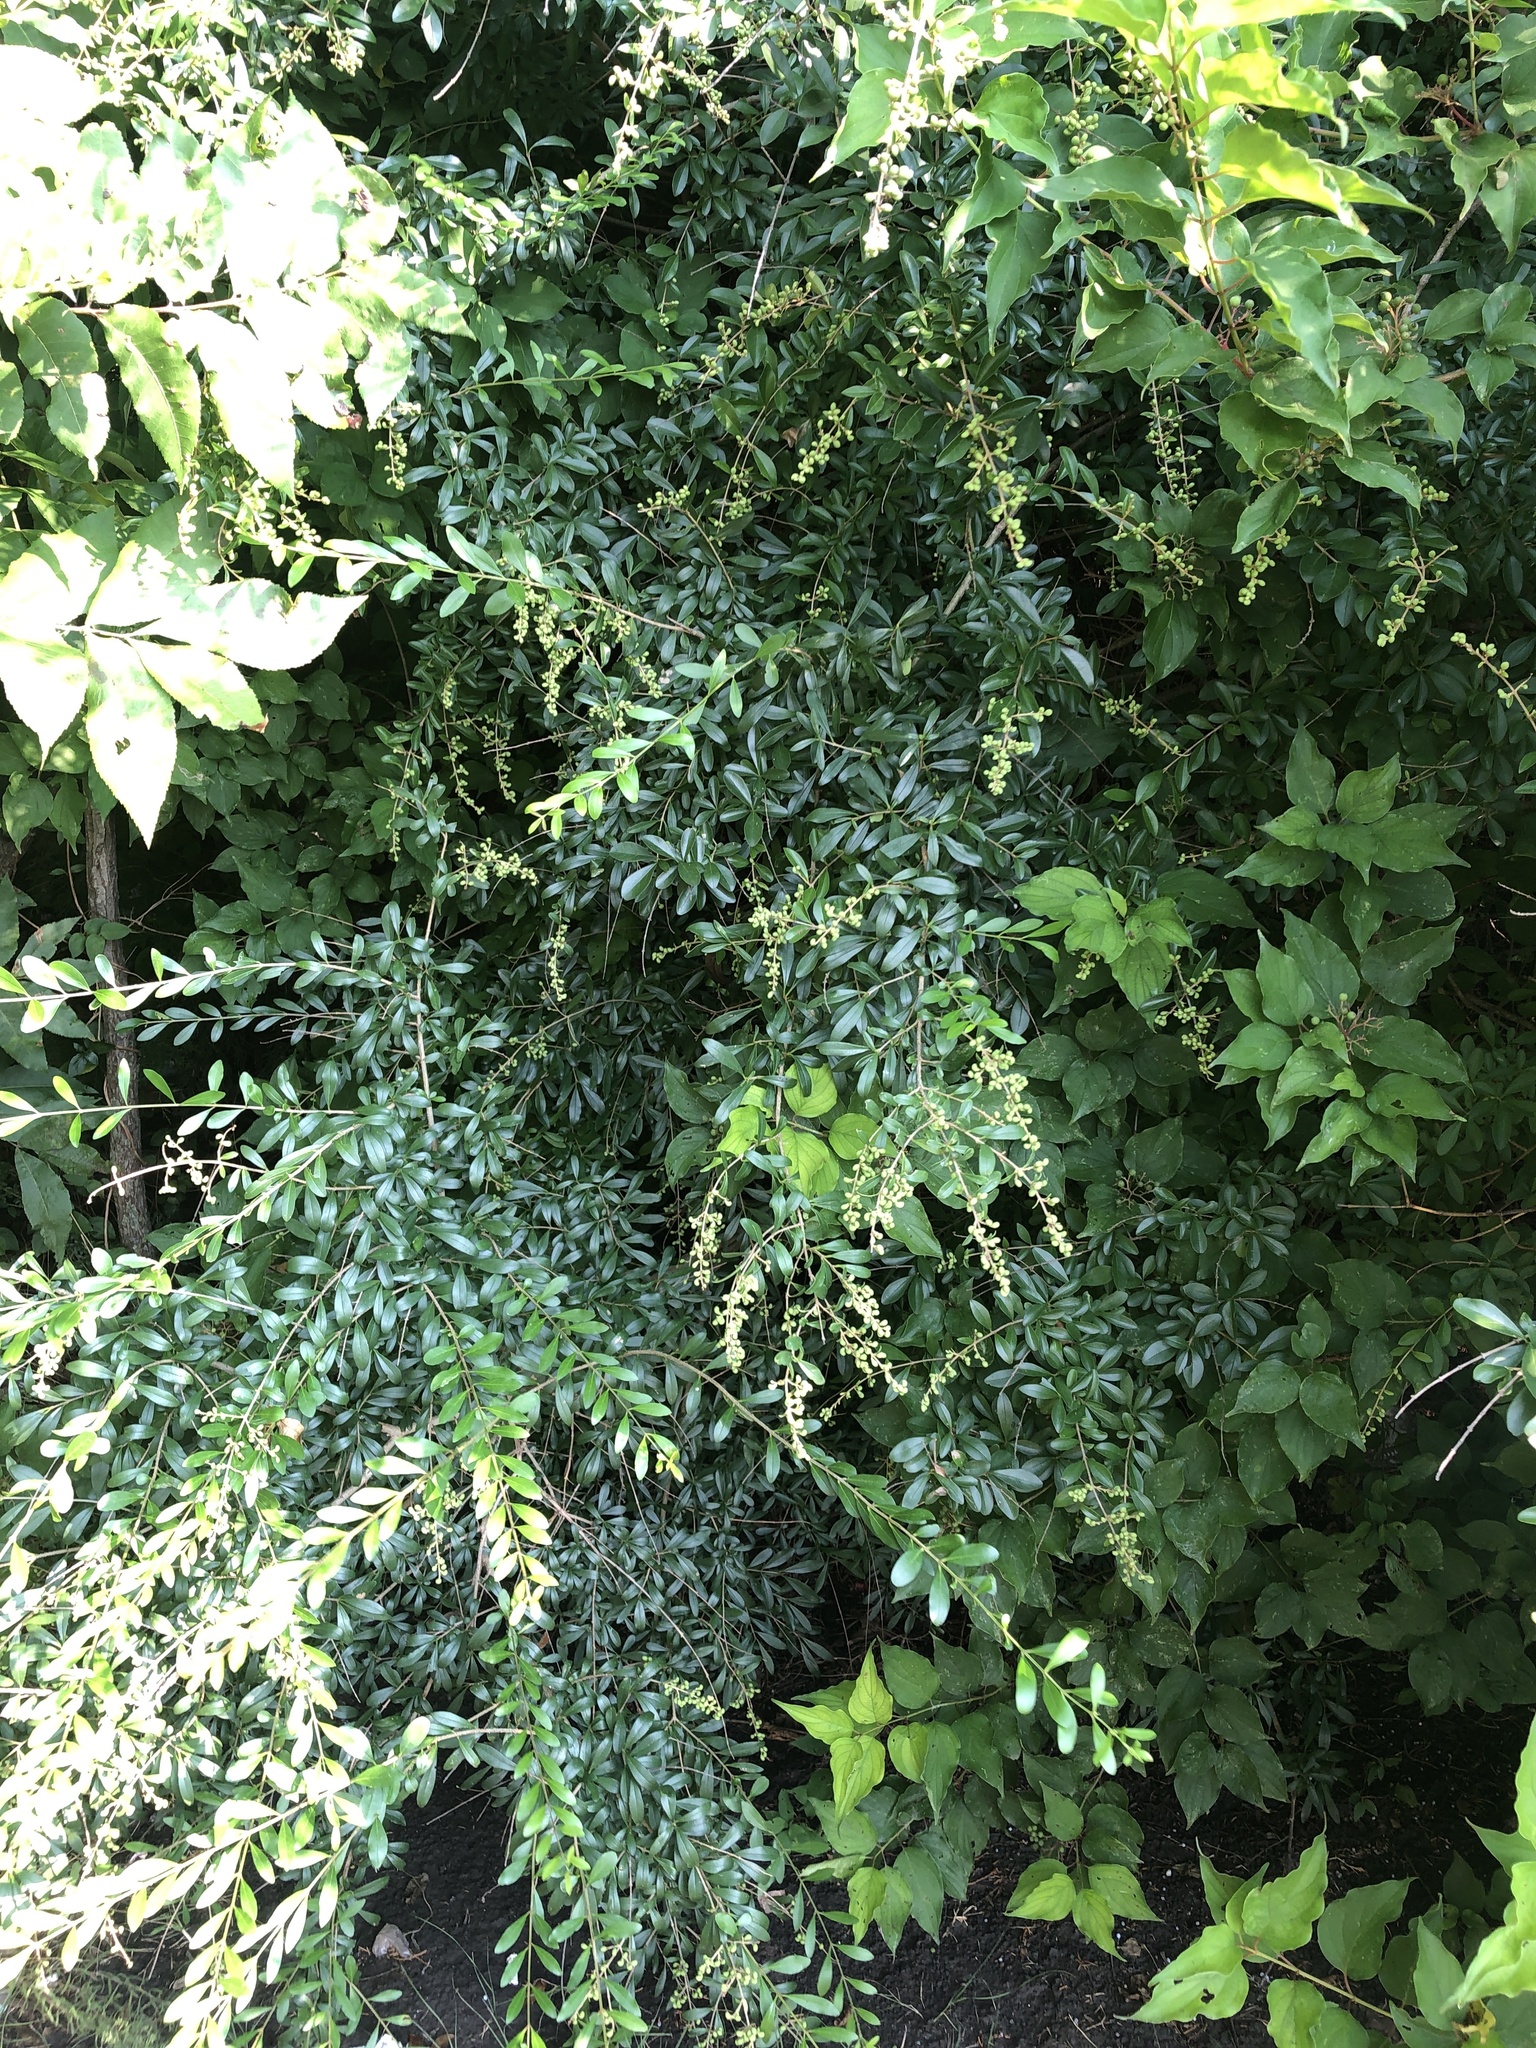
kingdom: Plantae
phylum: Tracheophyta
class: Magnoliopsida
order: Lamiales
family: Oleaceae
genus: Ligustrum
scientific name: Ligustrum quihoui
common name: Waxyleaf privet
